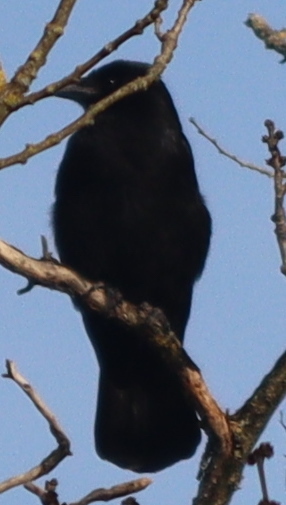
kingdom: Animalia
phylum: Chordata
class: Aves
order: Passeriformes
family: Corvidae
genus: Corvus
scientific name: Corvus corone
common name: Carrion crow
